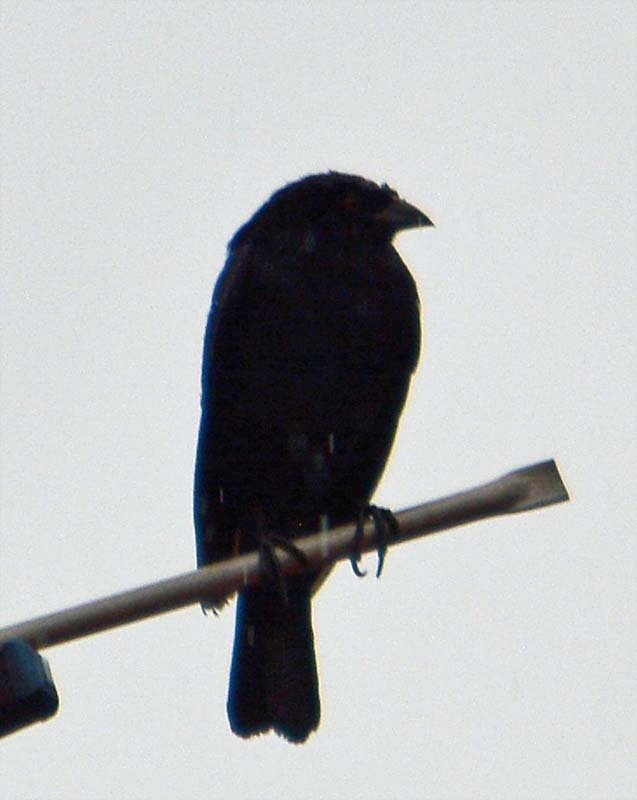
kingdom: Animalia
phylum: Chordata
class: Aves
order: Passeriformes
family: Icteridae
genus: Molothrus
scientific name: Molothrus aeneus
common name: Bronzed cowbird
